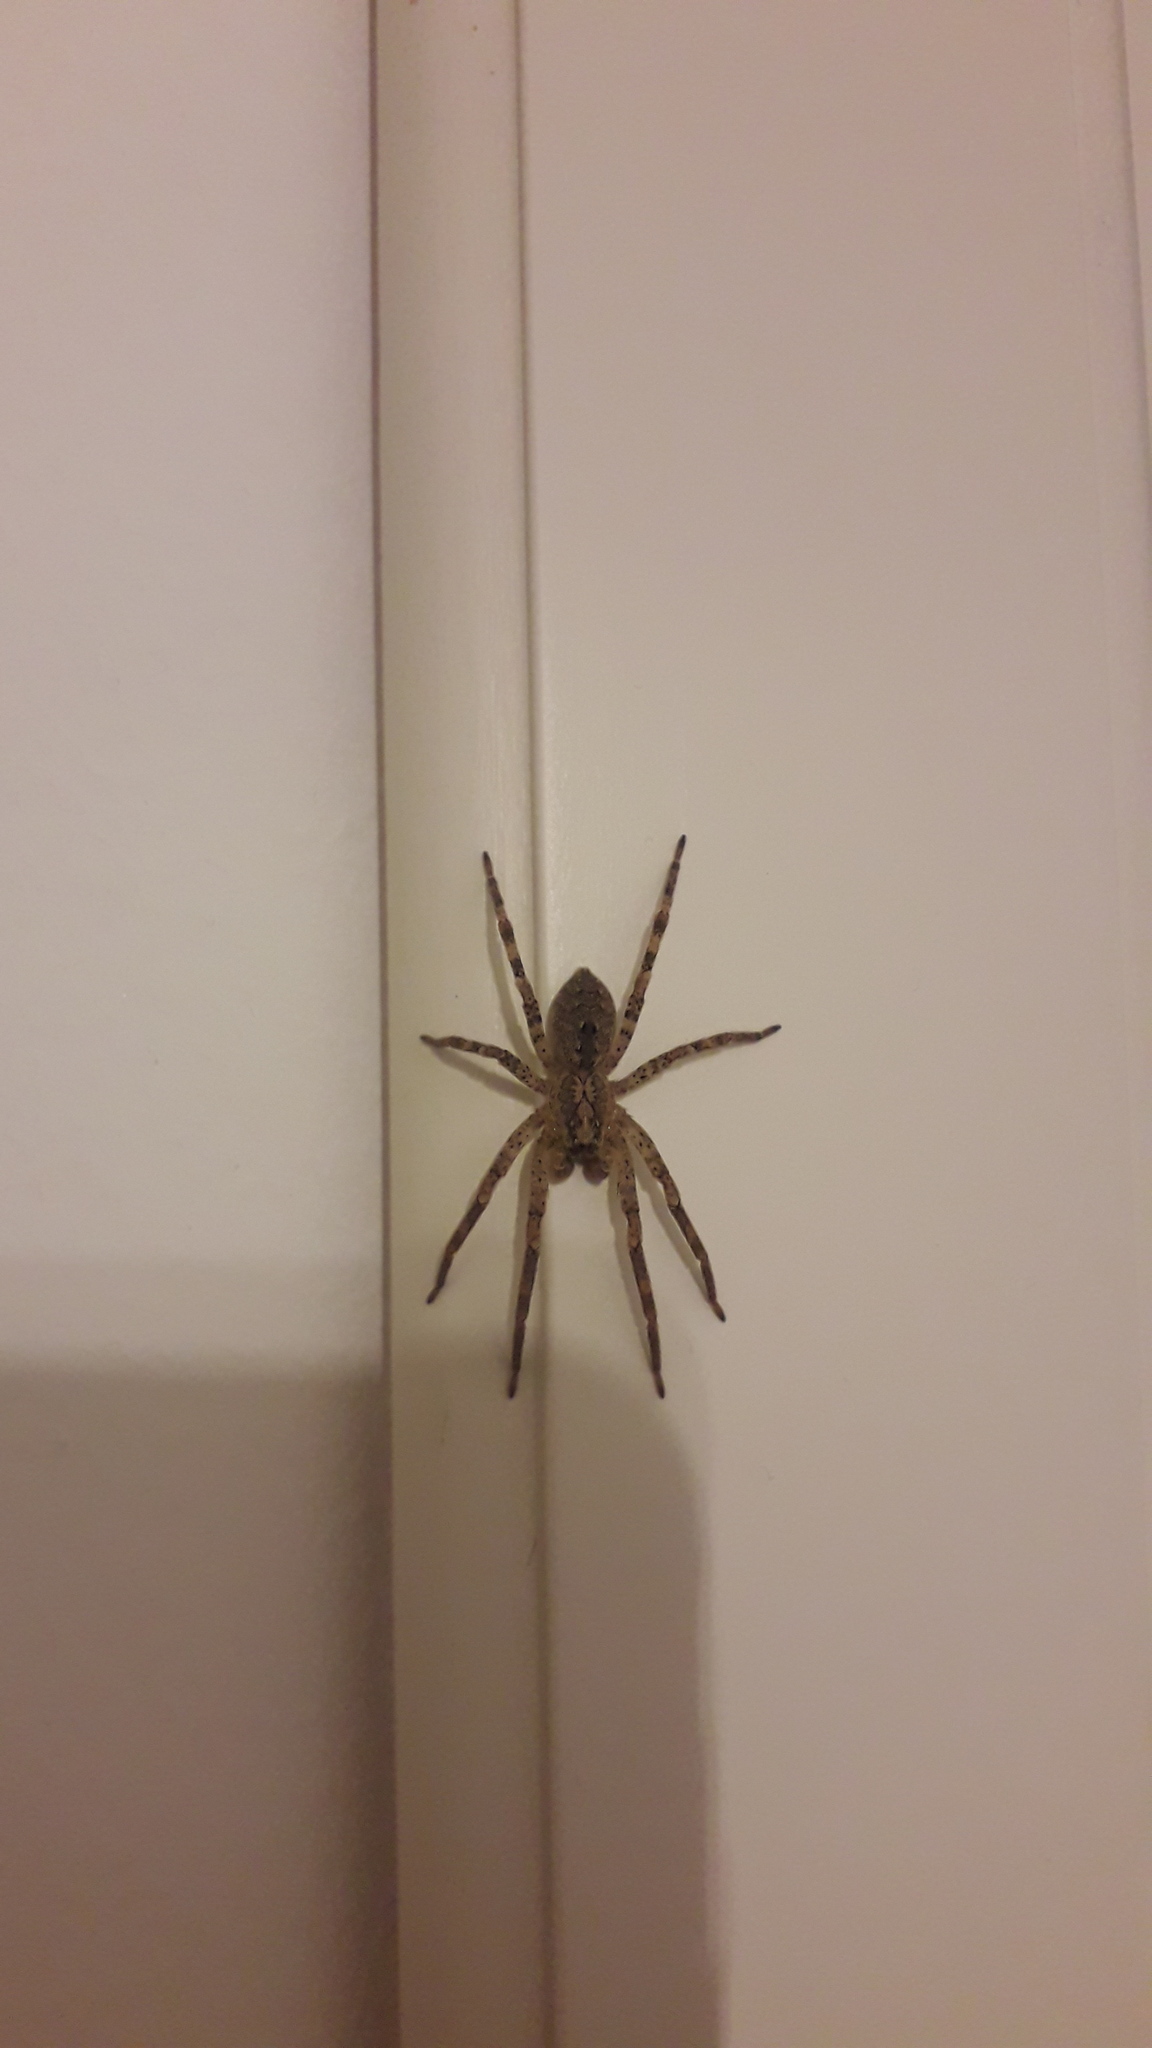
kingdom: Animalia
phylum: Arthropoda
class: Arachnida
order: Araneae
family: Zoropsidae
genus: Zoropsis
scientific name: Zoropsis spinimana
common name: Zoropsid spider
